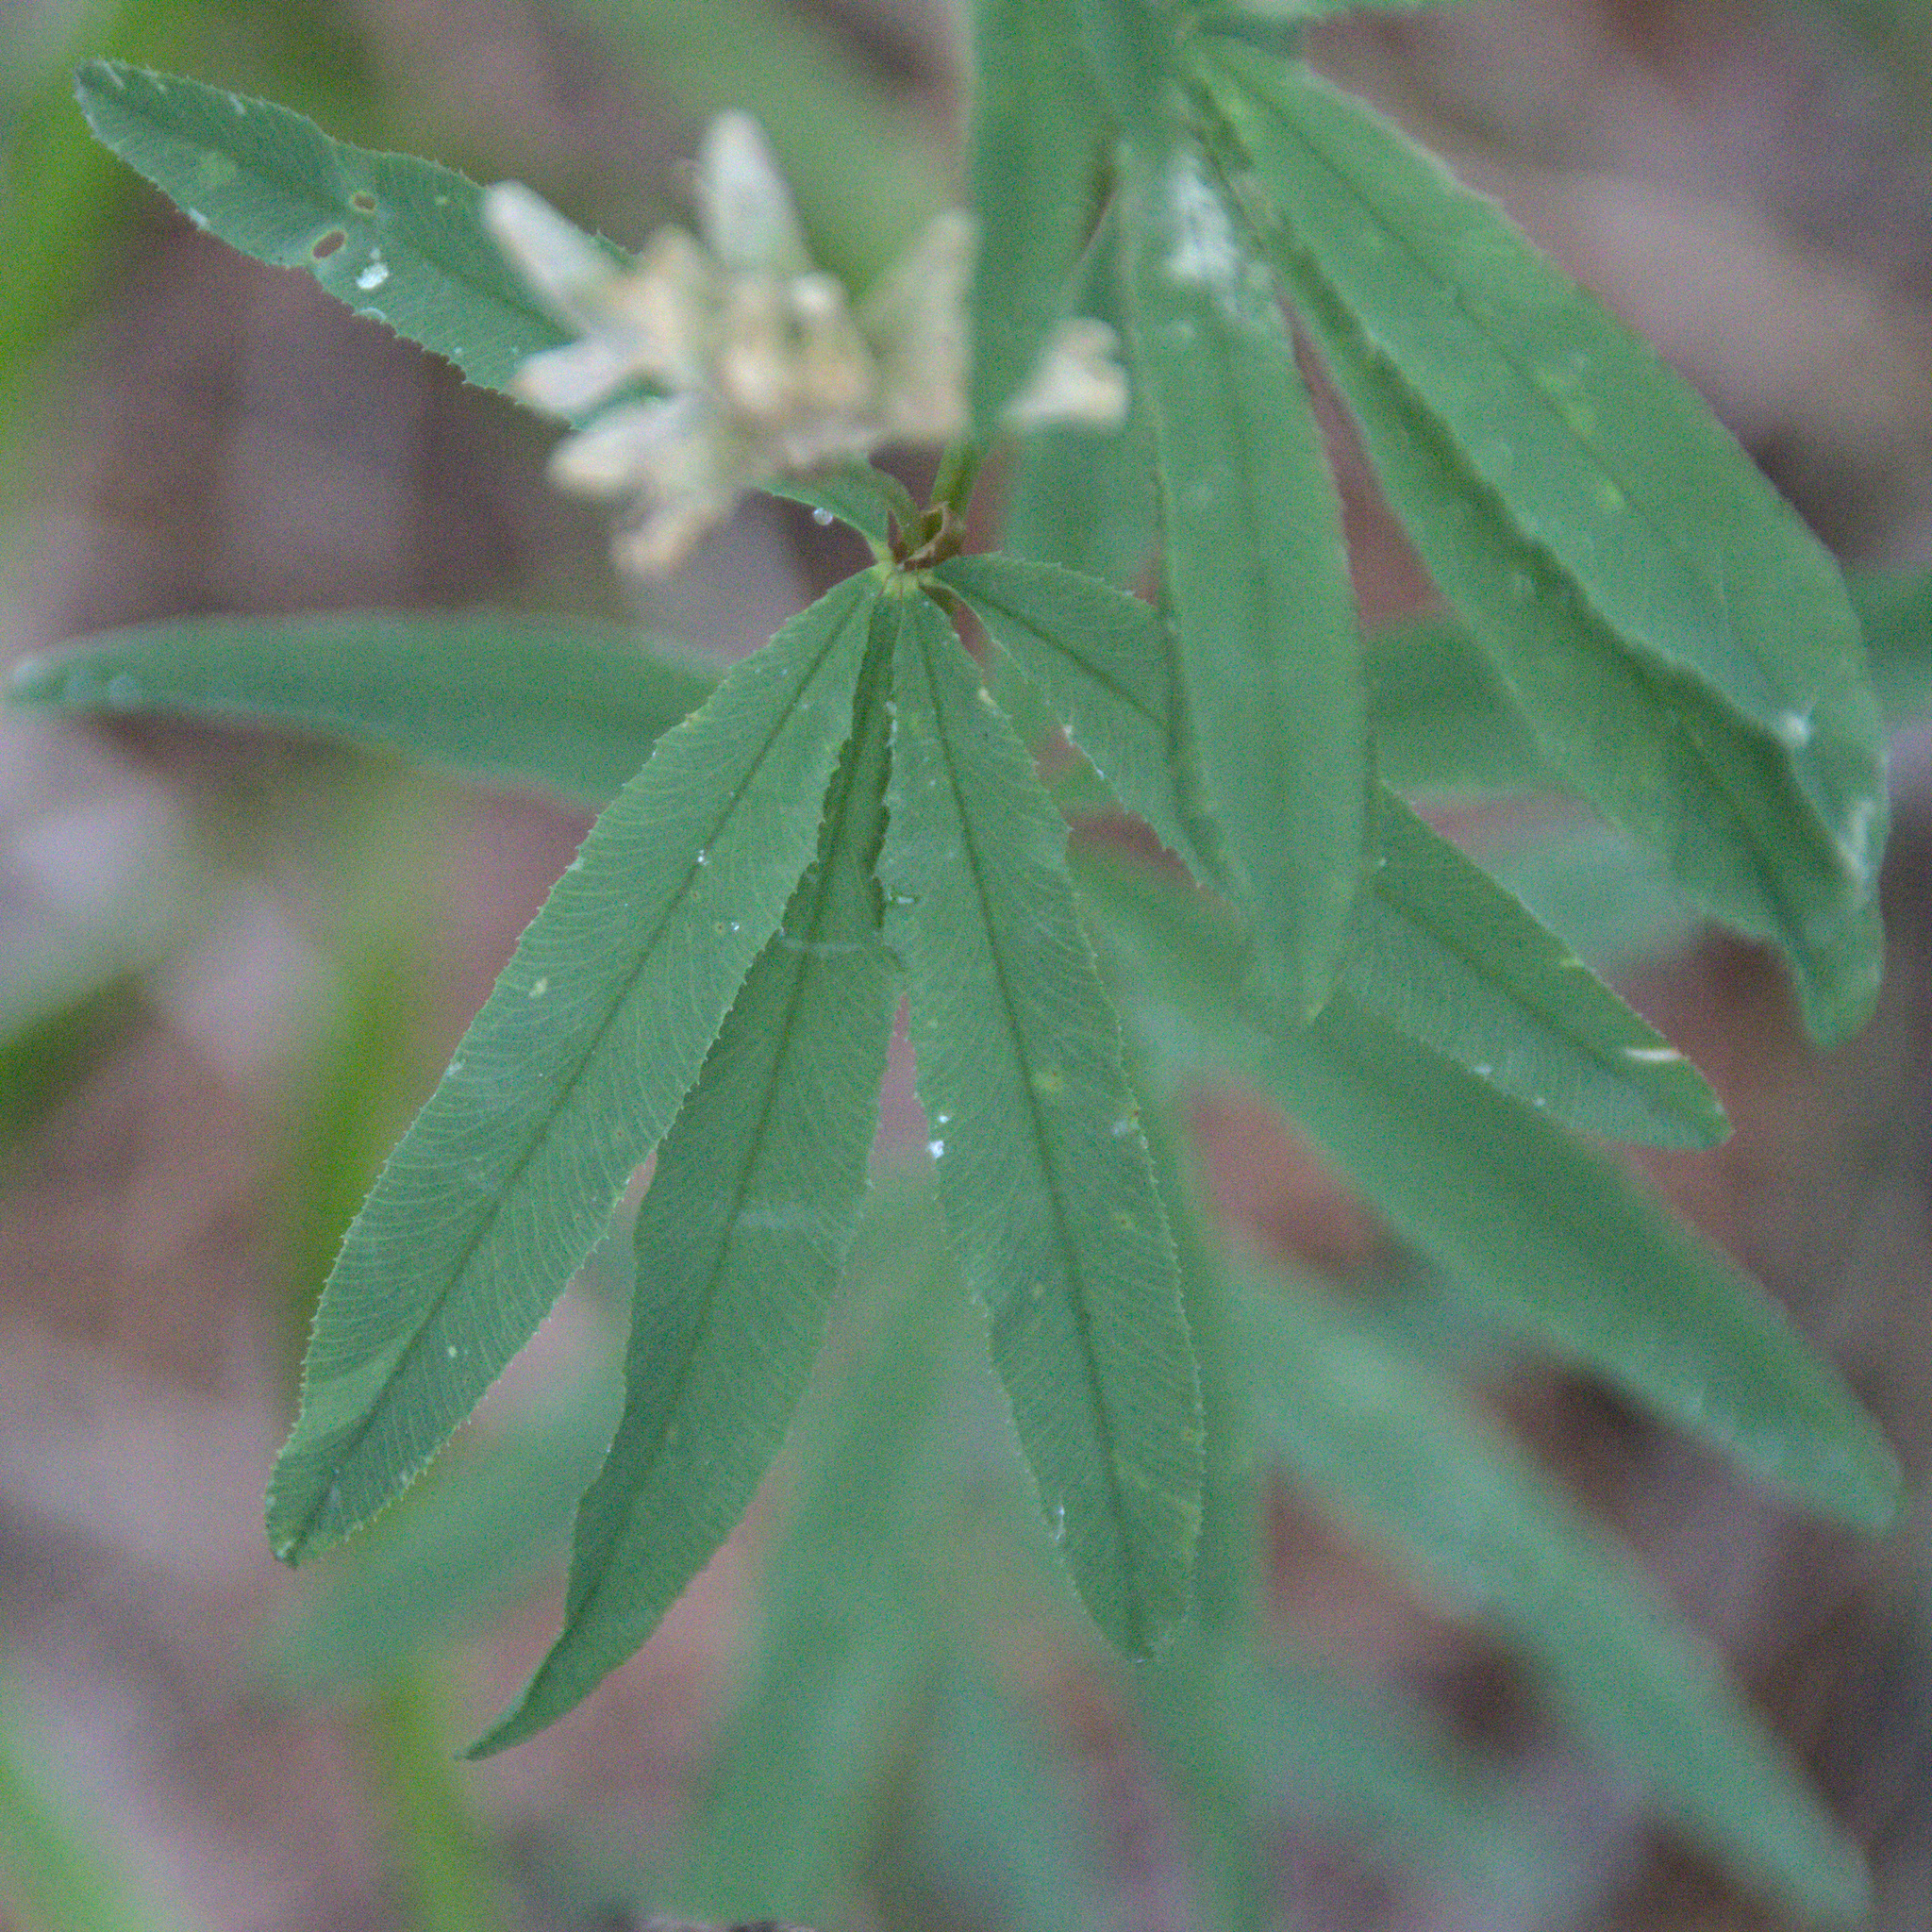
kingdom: Plantae
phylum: Tracheophyta
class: Magnoliopsida
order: Fabales
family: Fabaceae
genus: Trifolium
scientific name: Trifolium lupinaster
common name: Lupine clover
